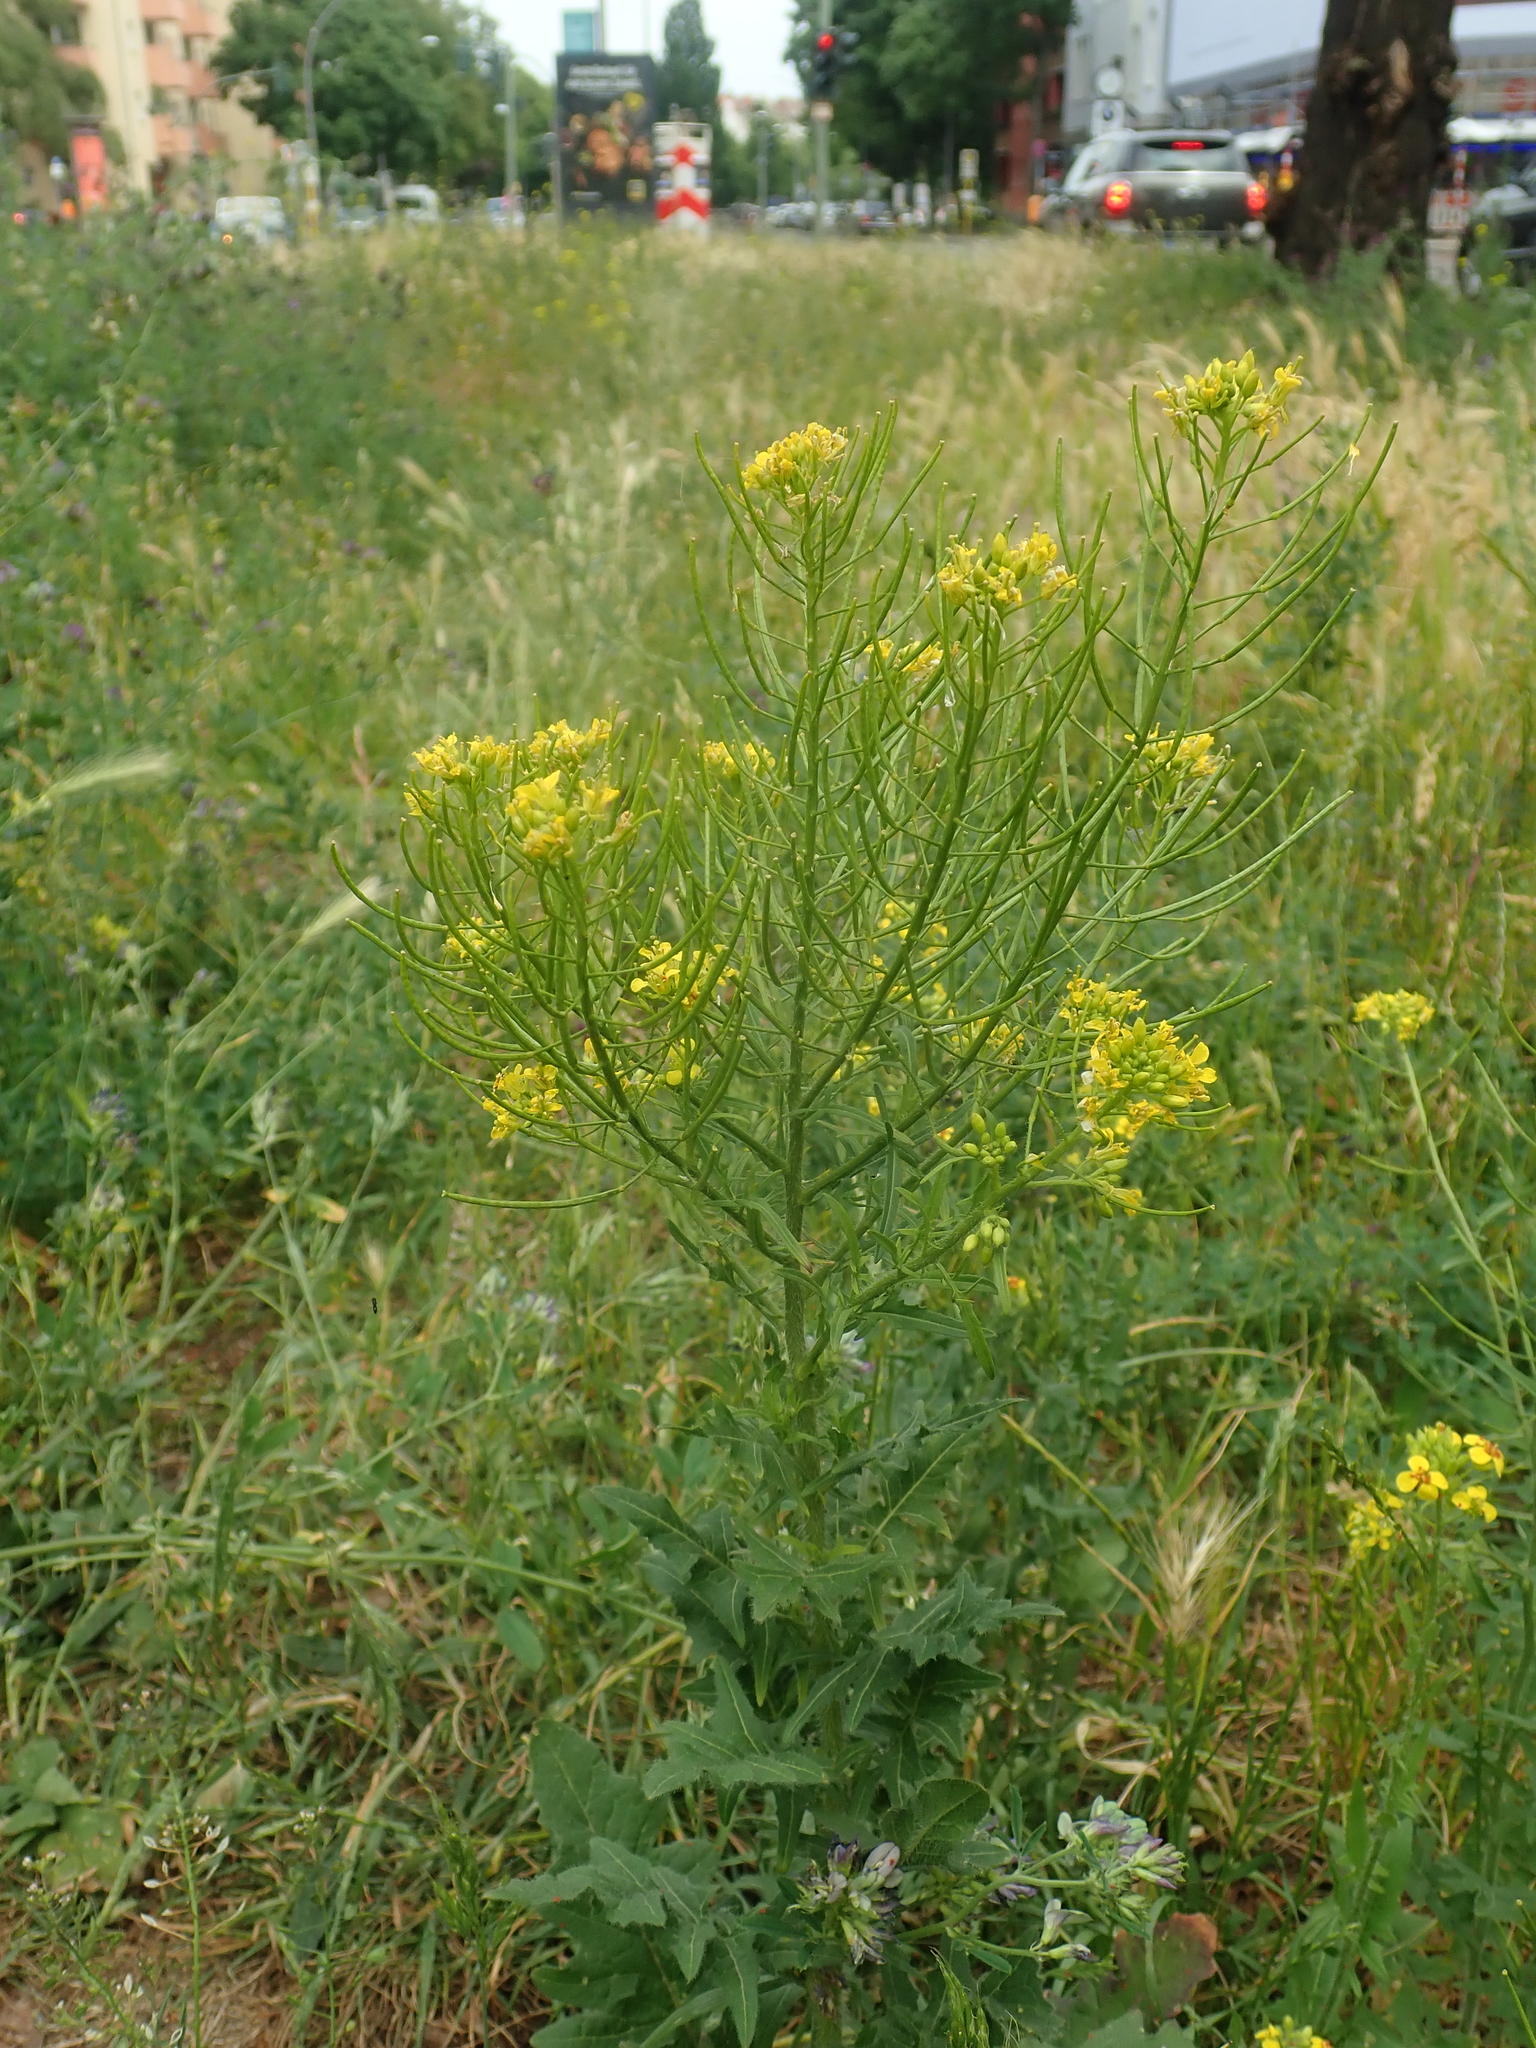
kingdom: Plantae
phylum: Tracheophyta
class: Magnoliopsida
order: Brassicales
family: Brassicaceae
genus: Sisymbrium
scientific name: Sisymbrium loeselii
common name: False london-rocket
